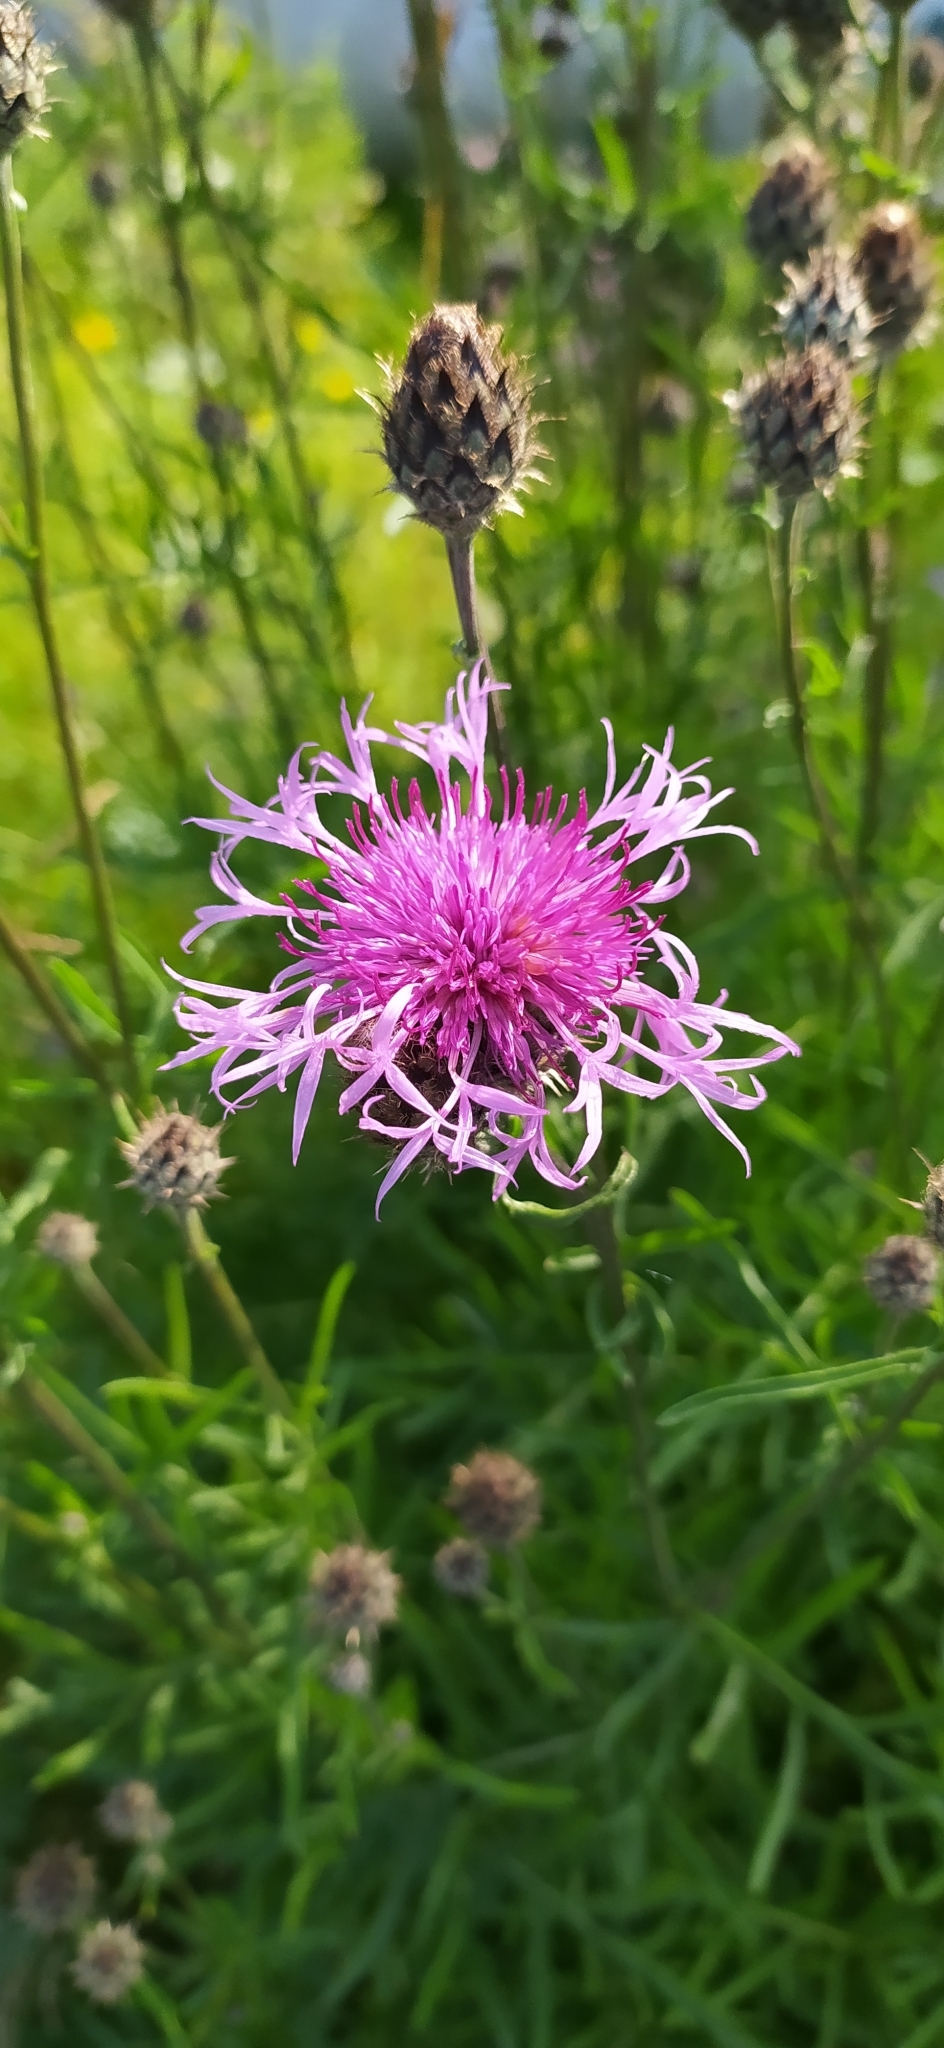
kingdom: Plantae
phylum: Tracheophyta
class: Magnoliopsida
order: Asterales
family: Asteraceae
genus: Centaurea
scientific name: Centaurea scabiosa
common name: Greater knapweed
